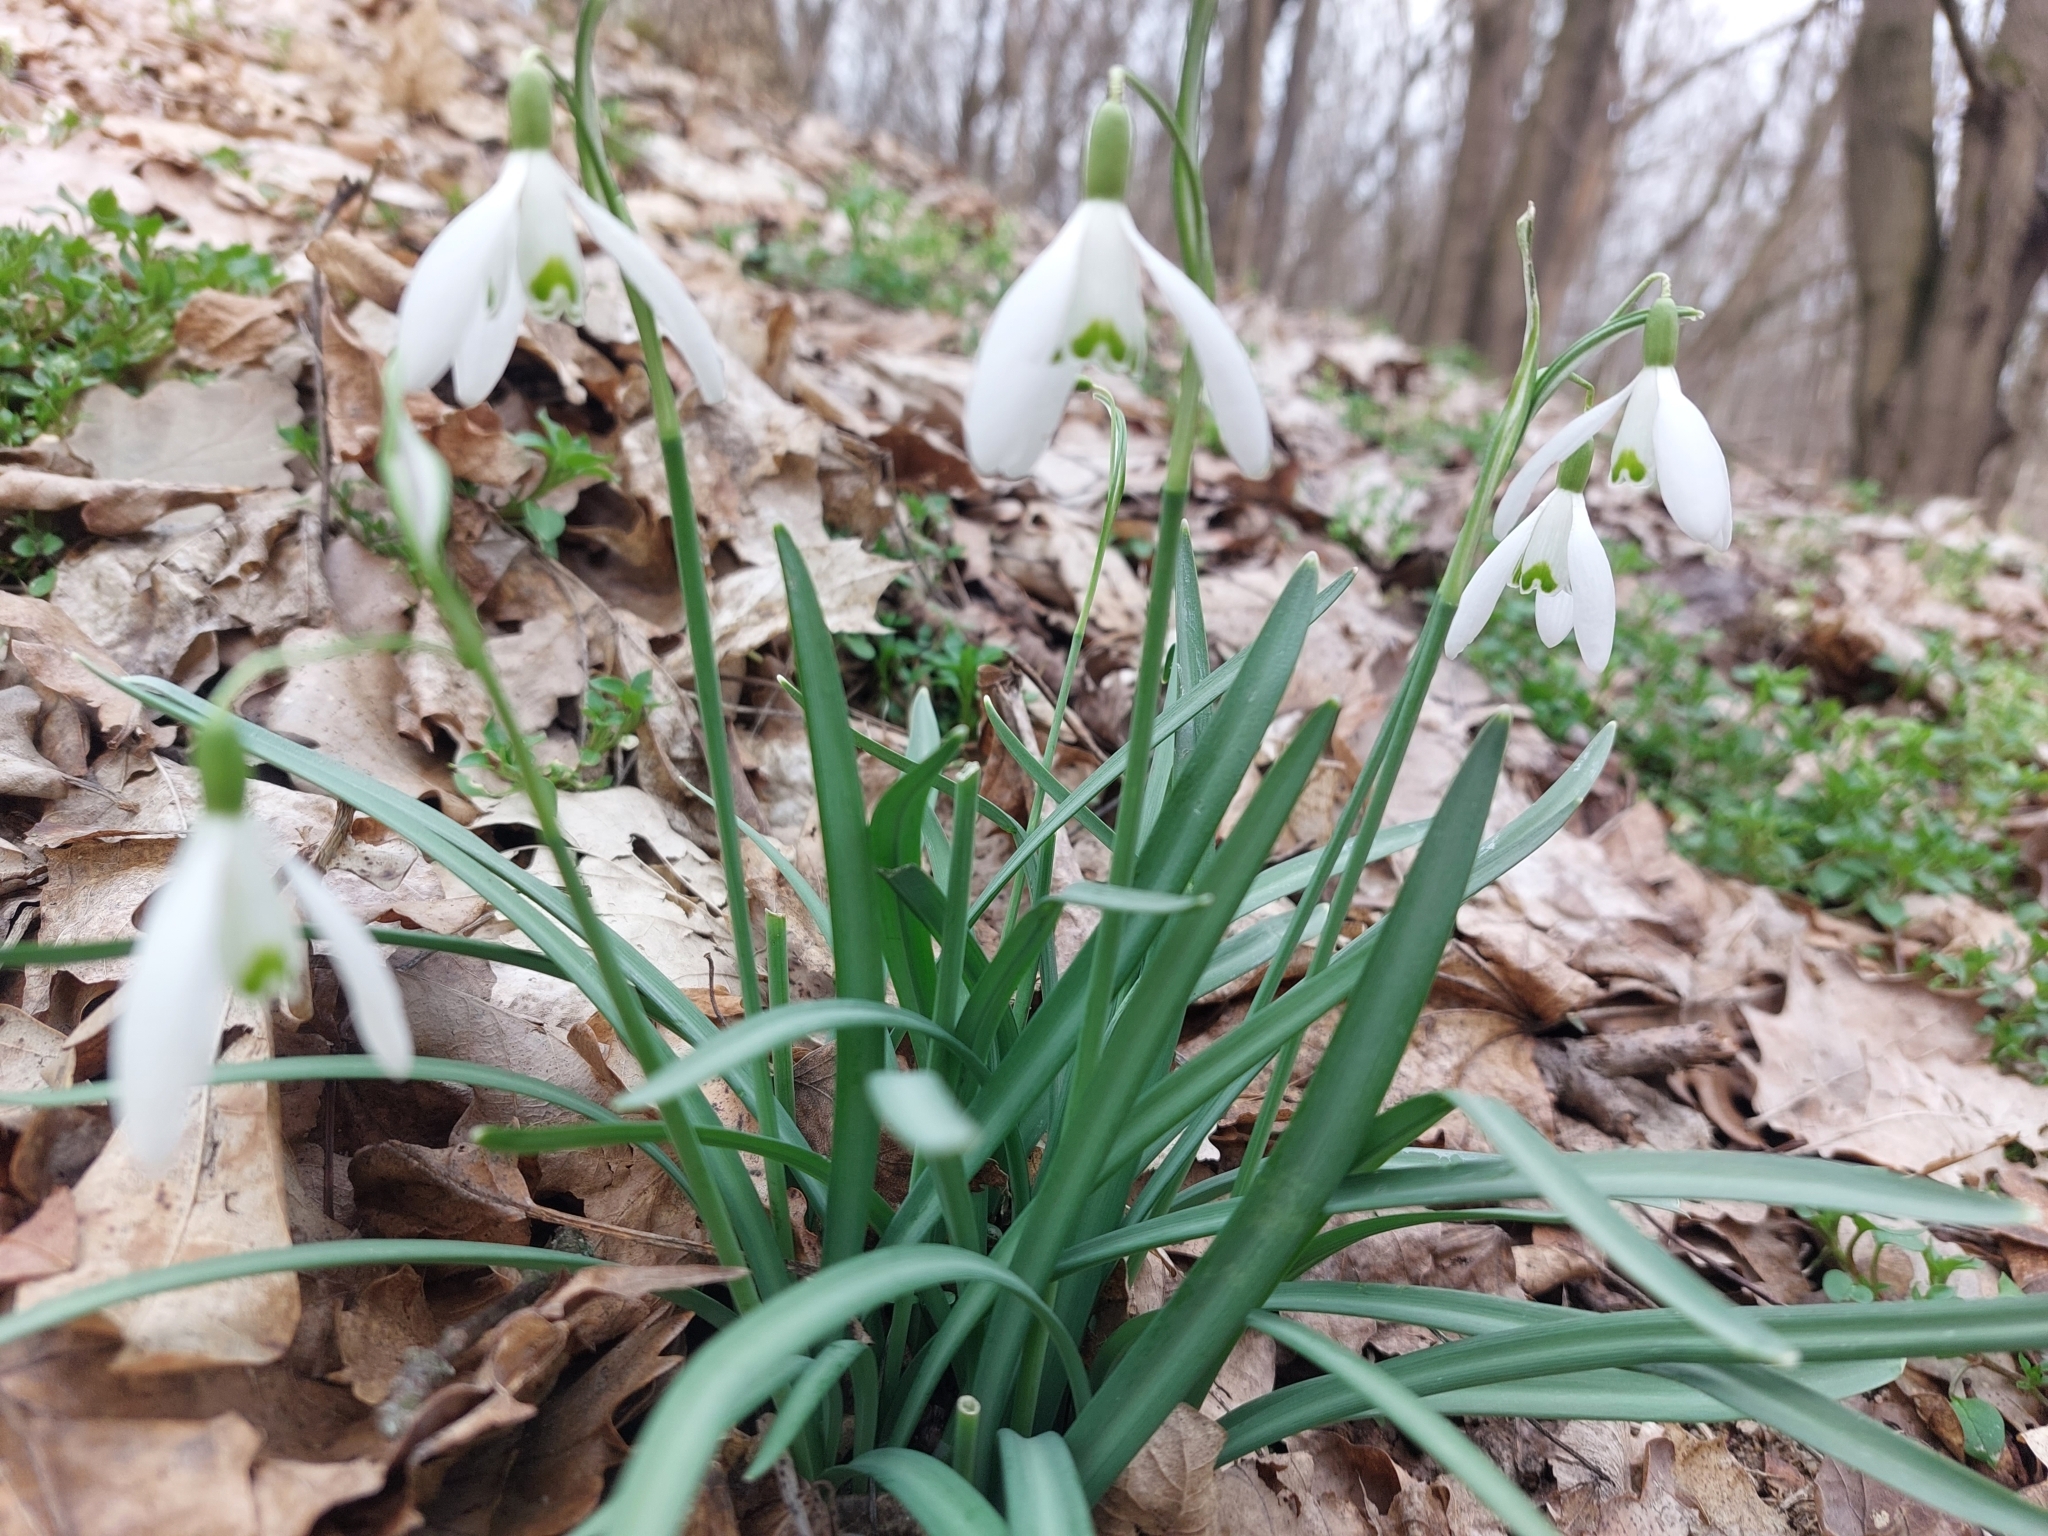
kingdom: Plantae
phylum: Tracheophyta
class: Liliopsida
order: Asparagales
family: Amaryllidaceae
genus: Galanthus
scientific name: Galanthus nivalis
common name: Snowdrop
